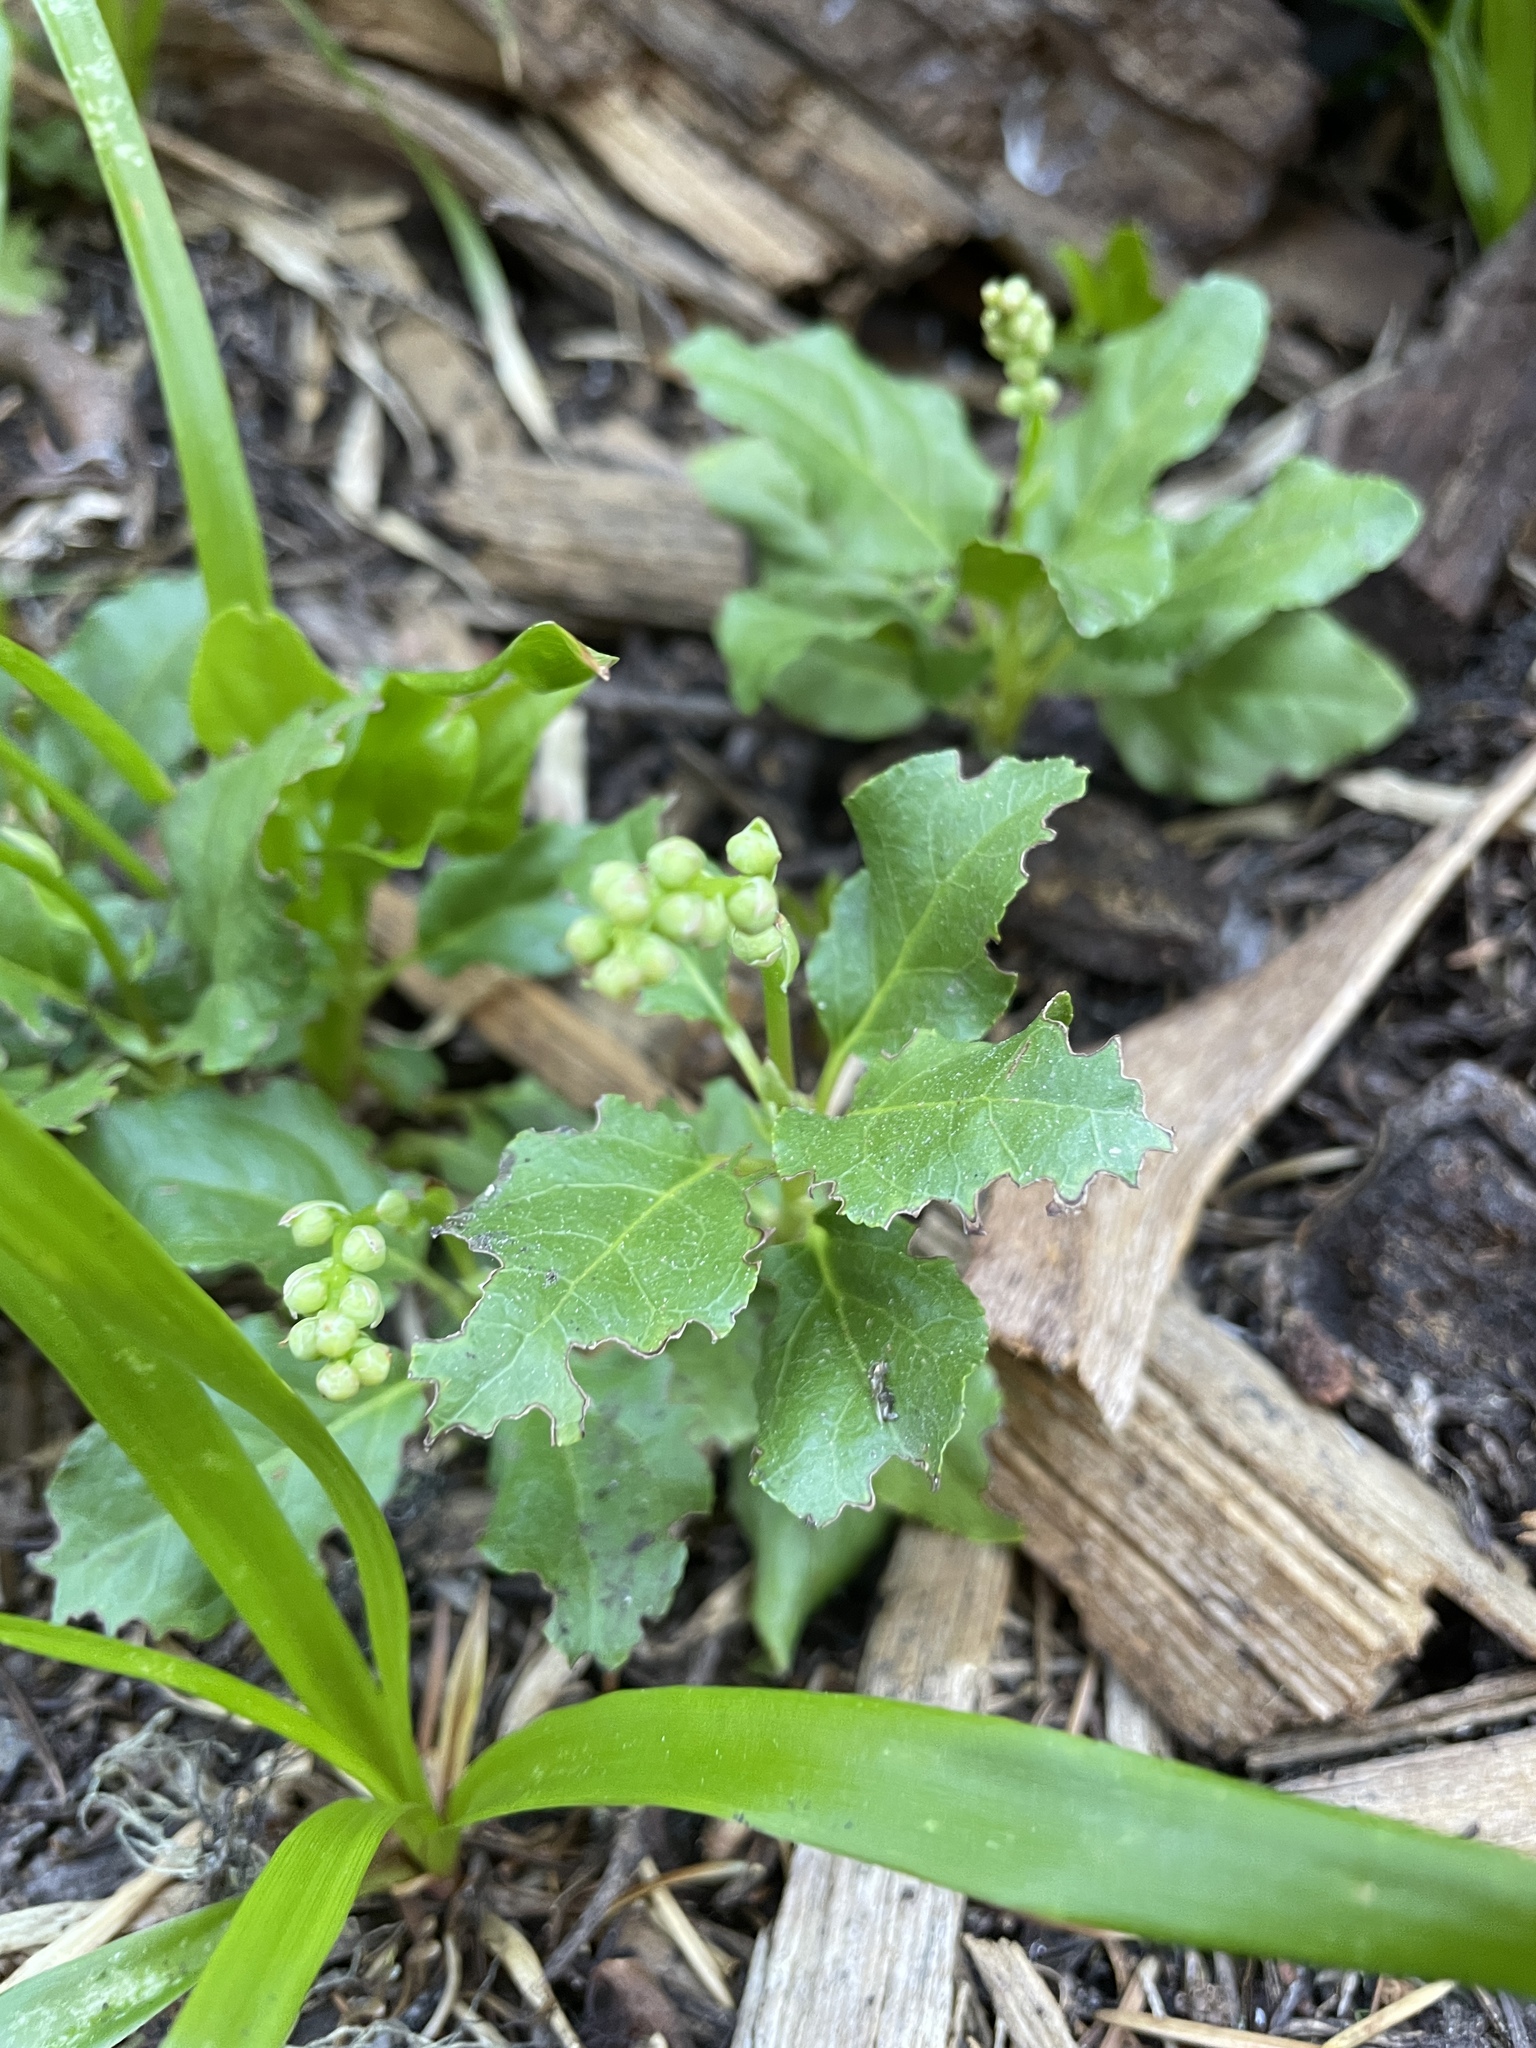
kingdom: Plantae
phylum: Tracheophyta
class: Magnoliopsida
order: Ericales
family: Ericaceae
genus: Orthilia
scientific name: Orthilia secunda
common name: One-sided orthilia
